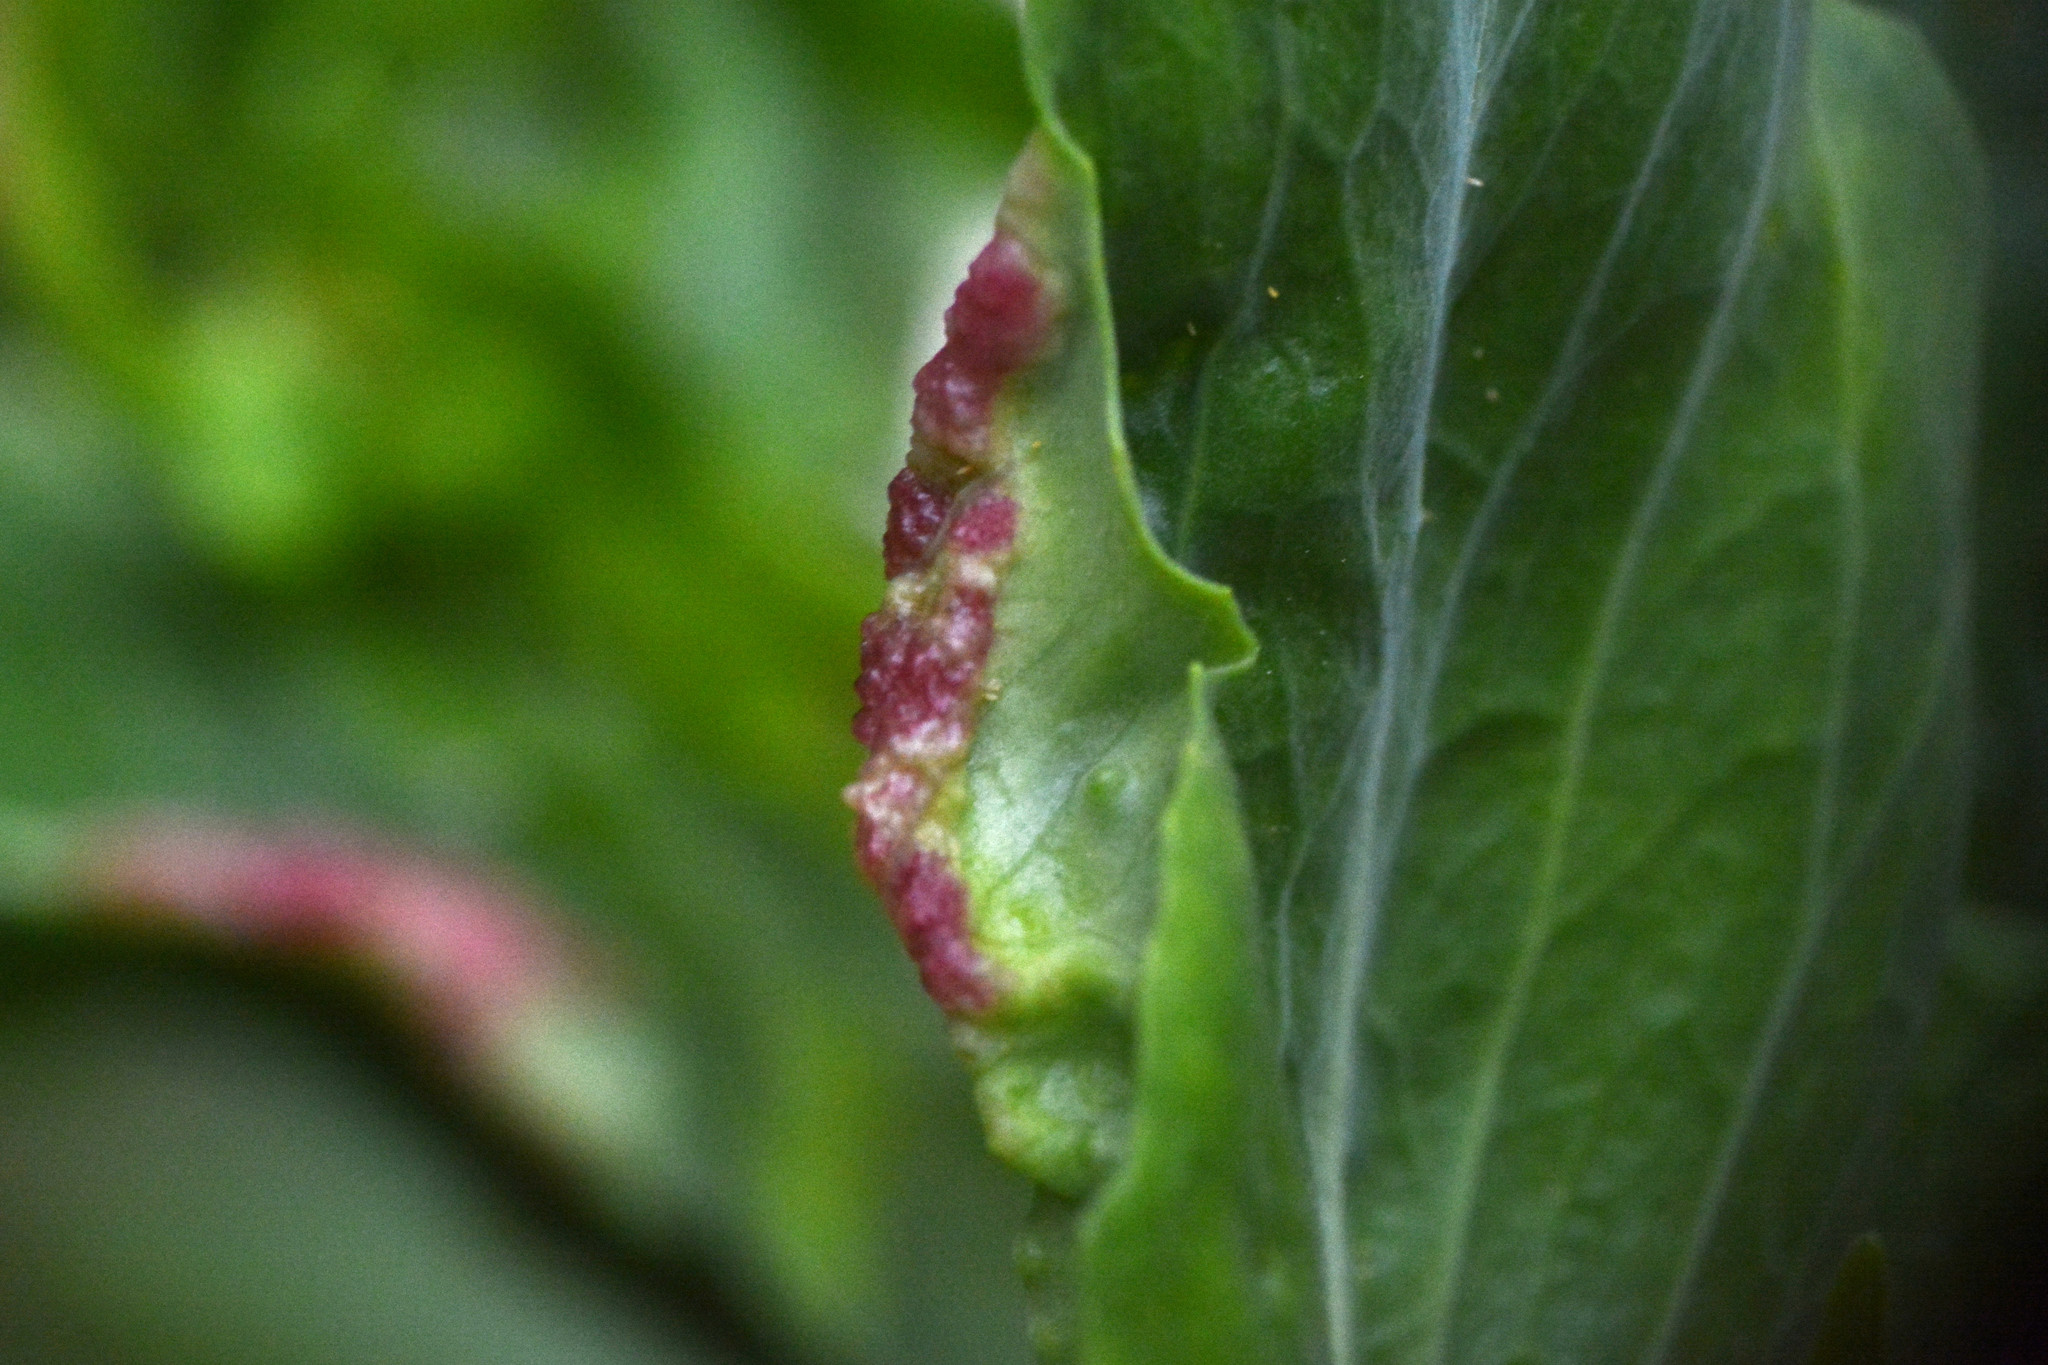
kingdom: Animalia
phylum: Arthropoda
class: Insecta
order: Hemiptera
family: Triozidae
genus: Trioza
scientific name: Trioza centranthi
